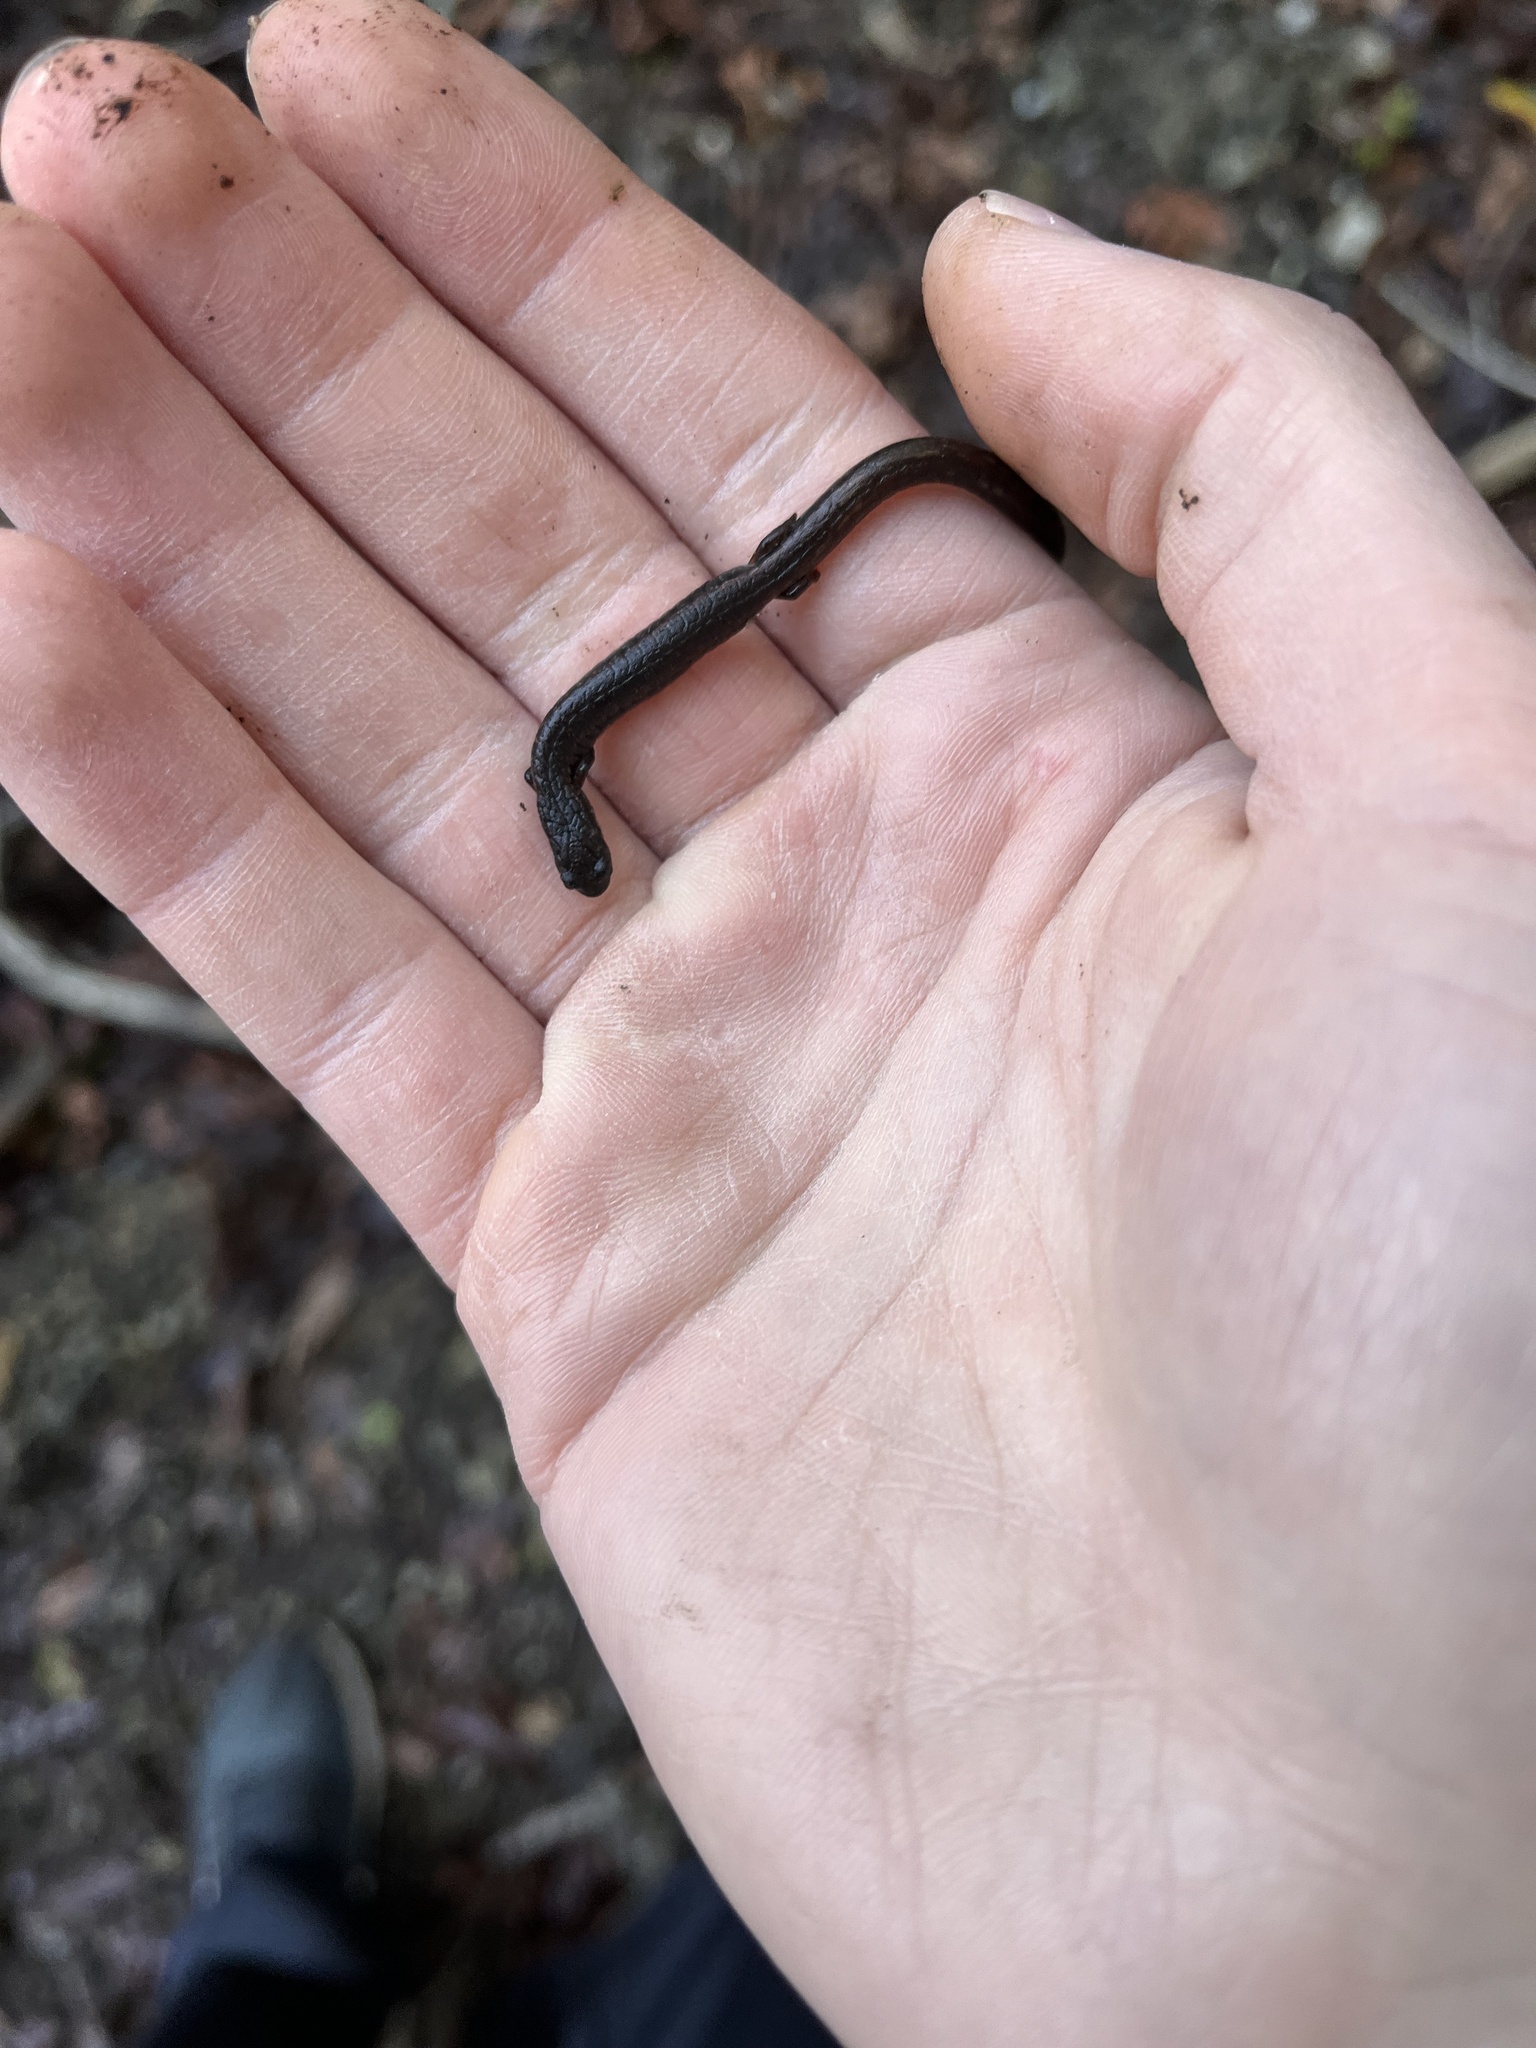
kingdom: Animalia
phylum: Chordata
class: Amphibia
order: Caudata
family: Plethodontidae
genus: Batrachoseps
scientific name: Batrachoseps attenuatus
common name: California slender salamander
